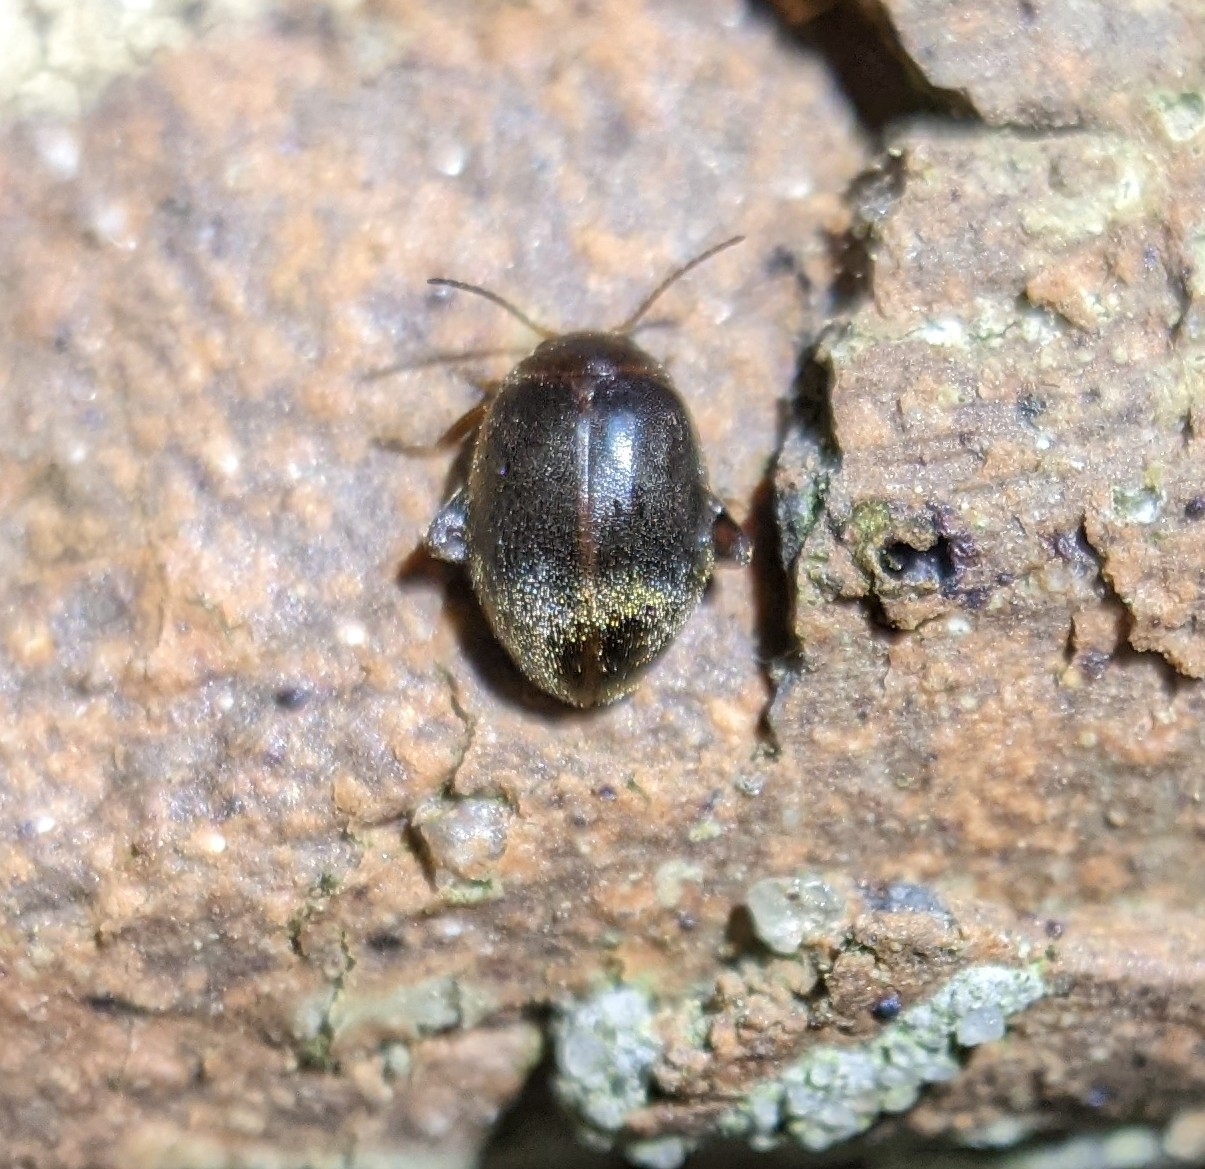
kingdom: Animalia
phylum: Arthropoda
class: Insecta
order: Coleoptera
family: Scirtidae
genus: Scirtes
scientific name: Scirtes tibialis
